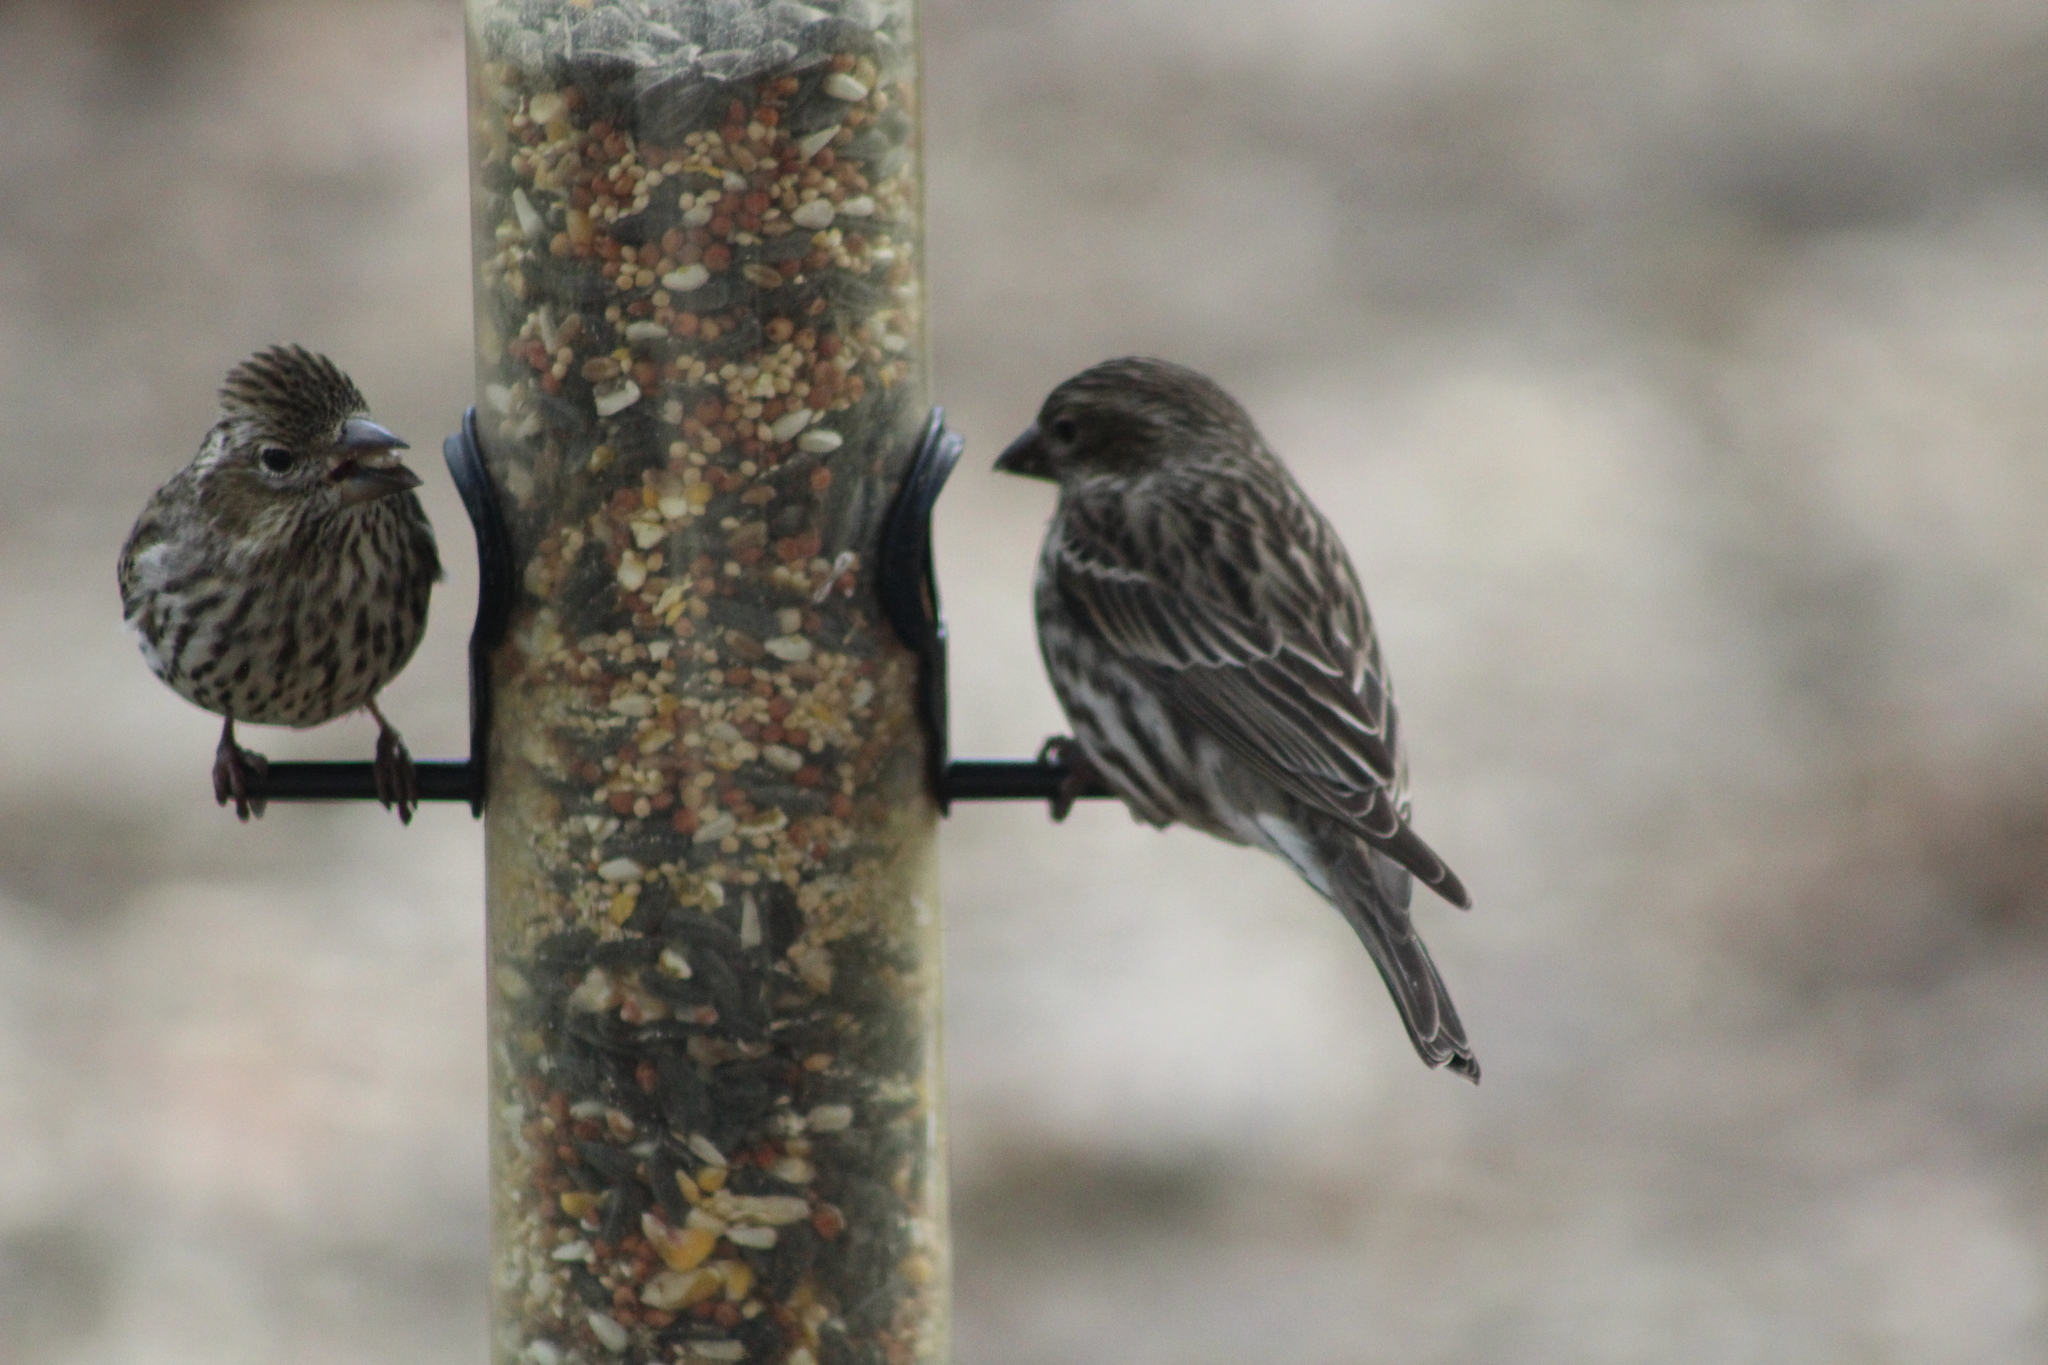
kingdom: Animalia
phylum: Chordata
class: Aves
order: Passeriformes
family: Fringillidae
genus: Haemorhous
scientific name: Haemorhous cassinii
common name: Cassin's finch
